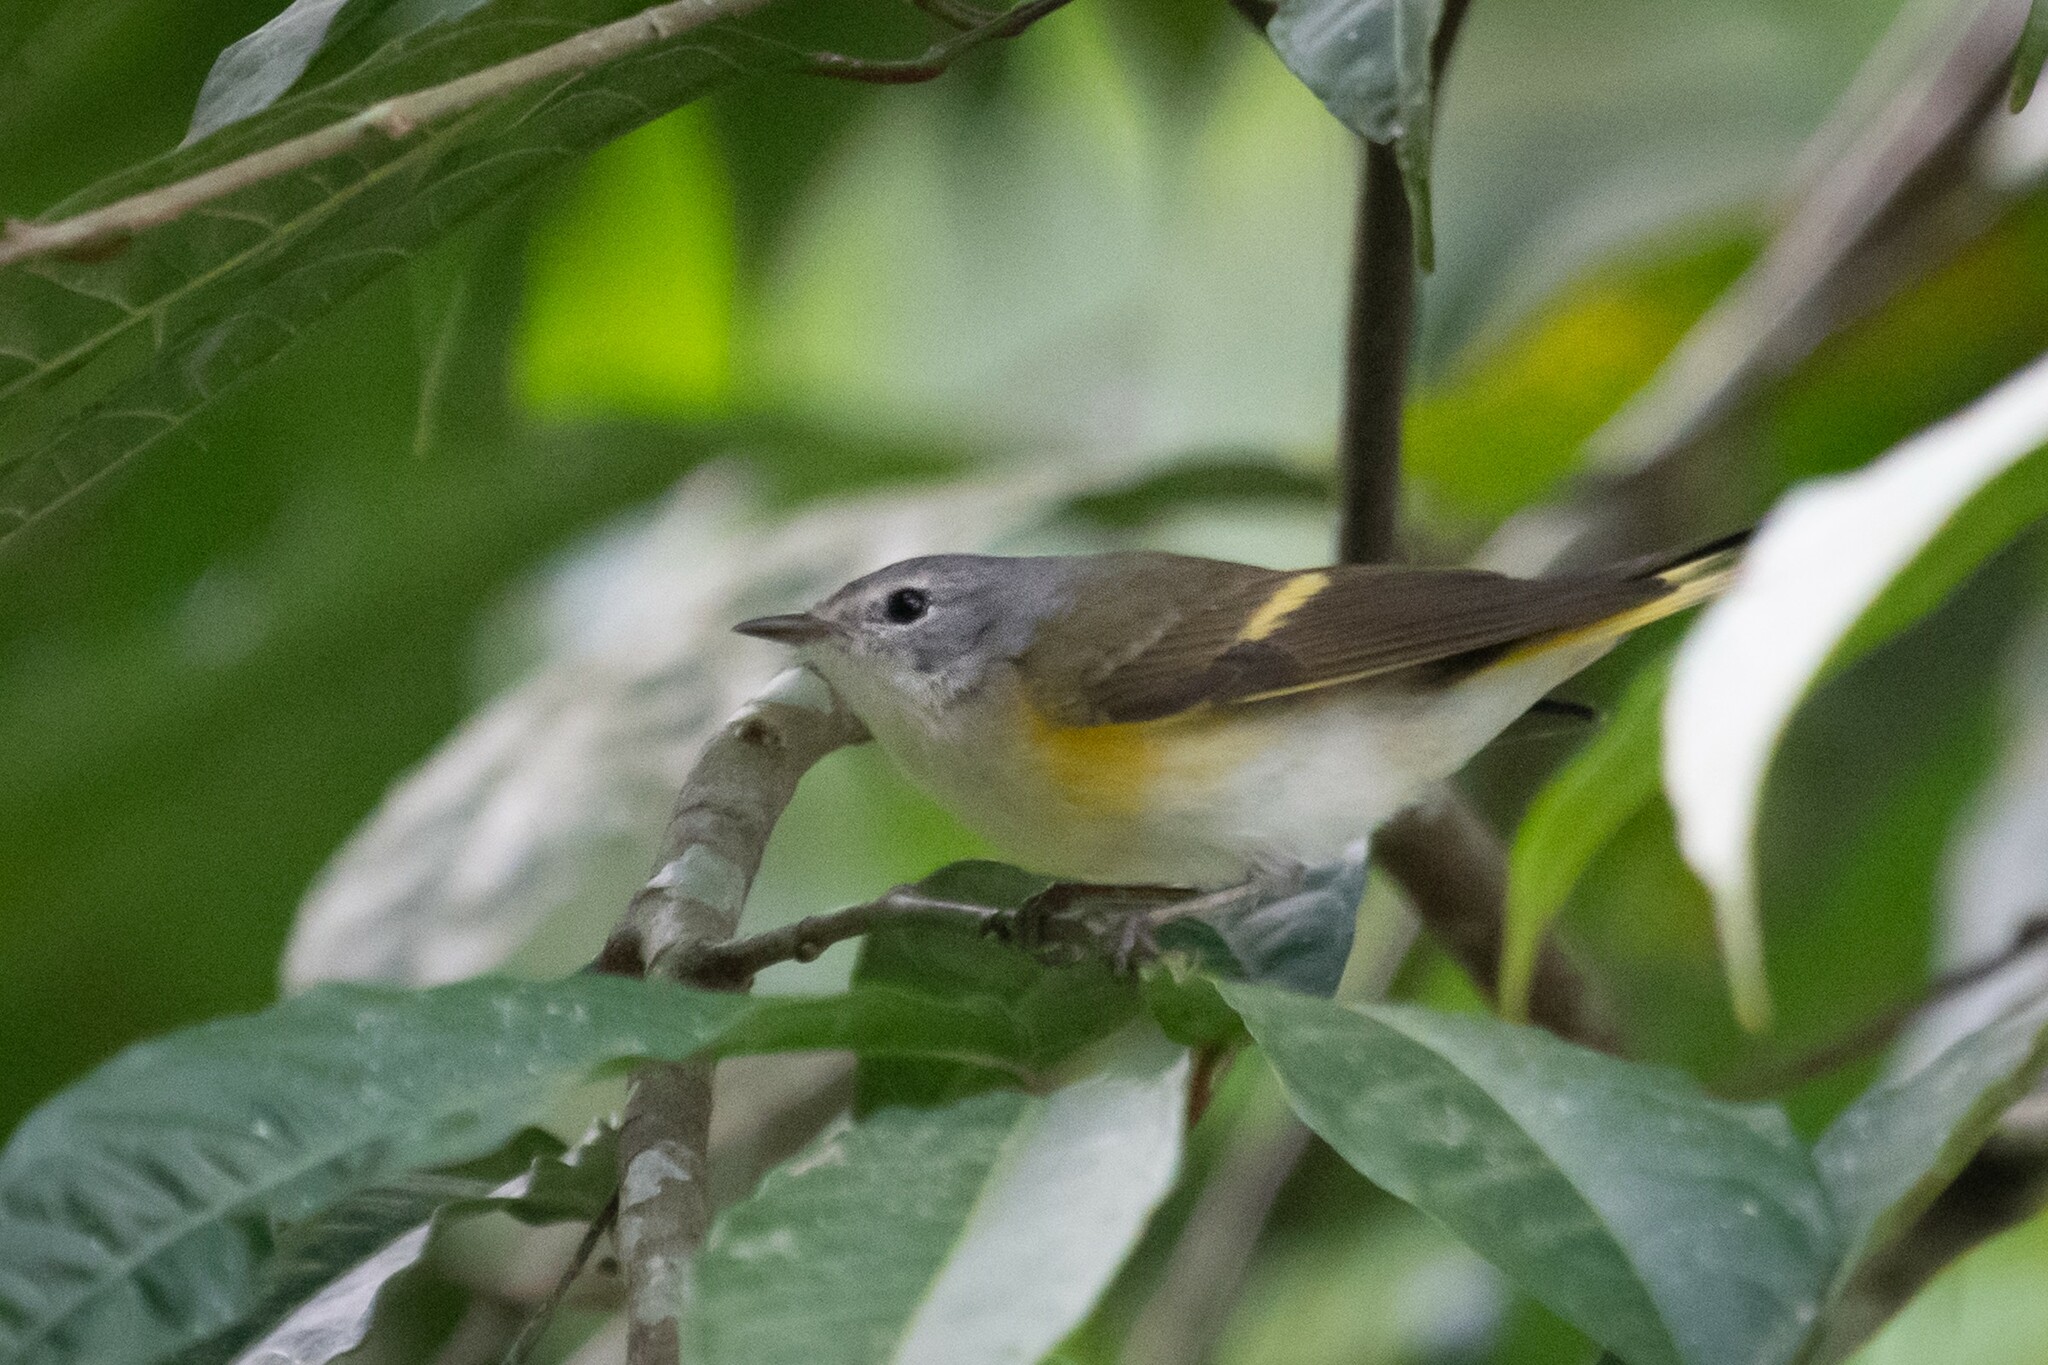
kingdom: Animalia
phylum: Chordata
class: Aves
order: Passeriformes
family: Parulidae
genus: Setophaga
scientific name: Setophaga ruticilla
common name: American redstart
